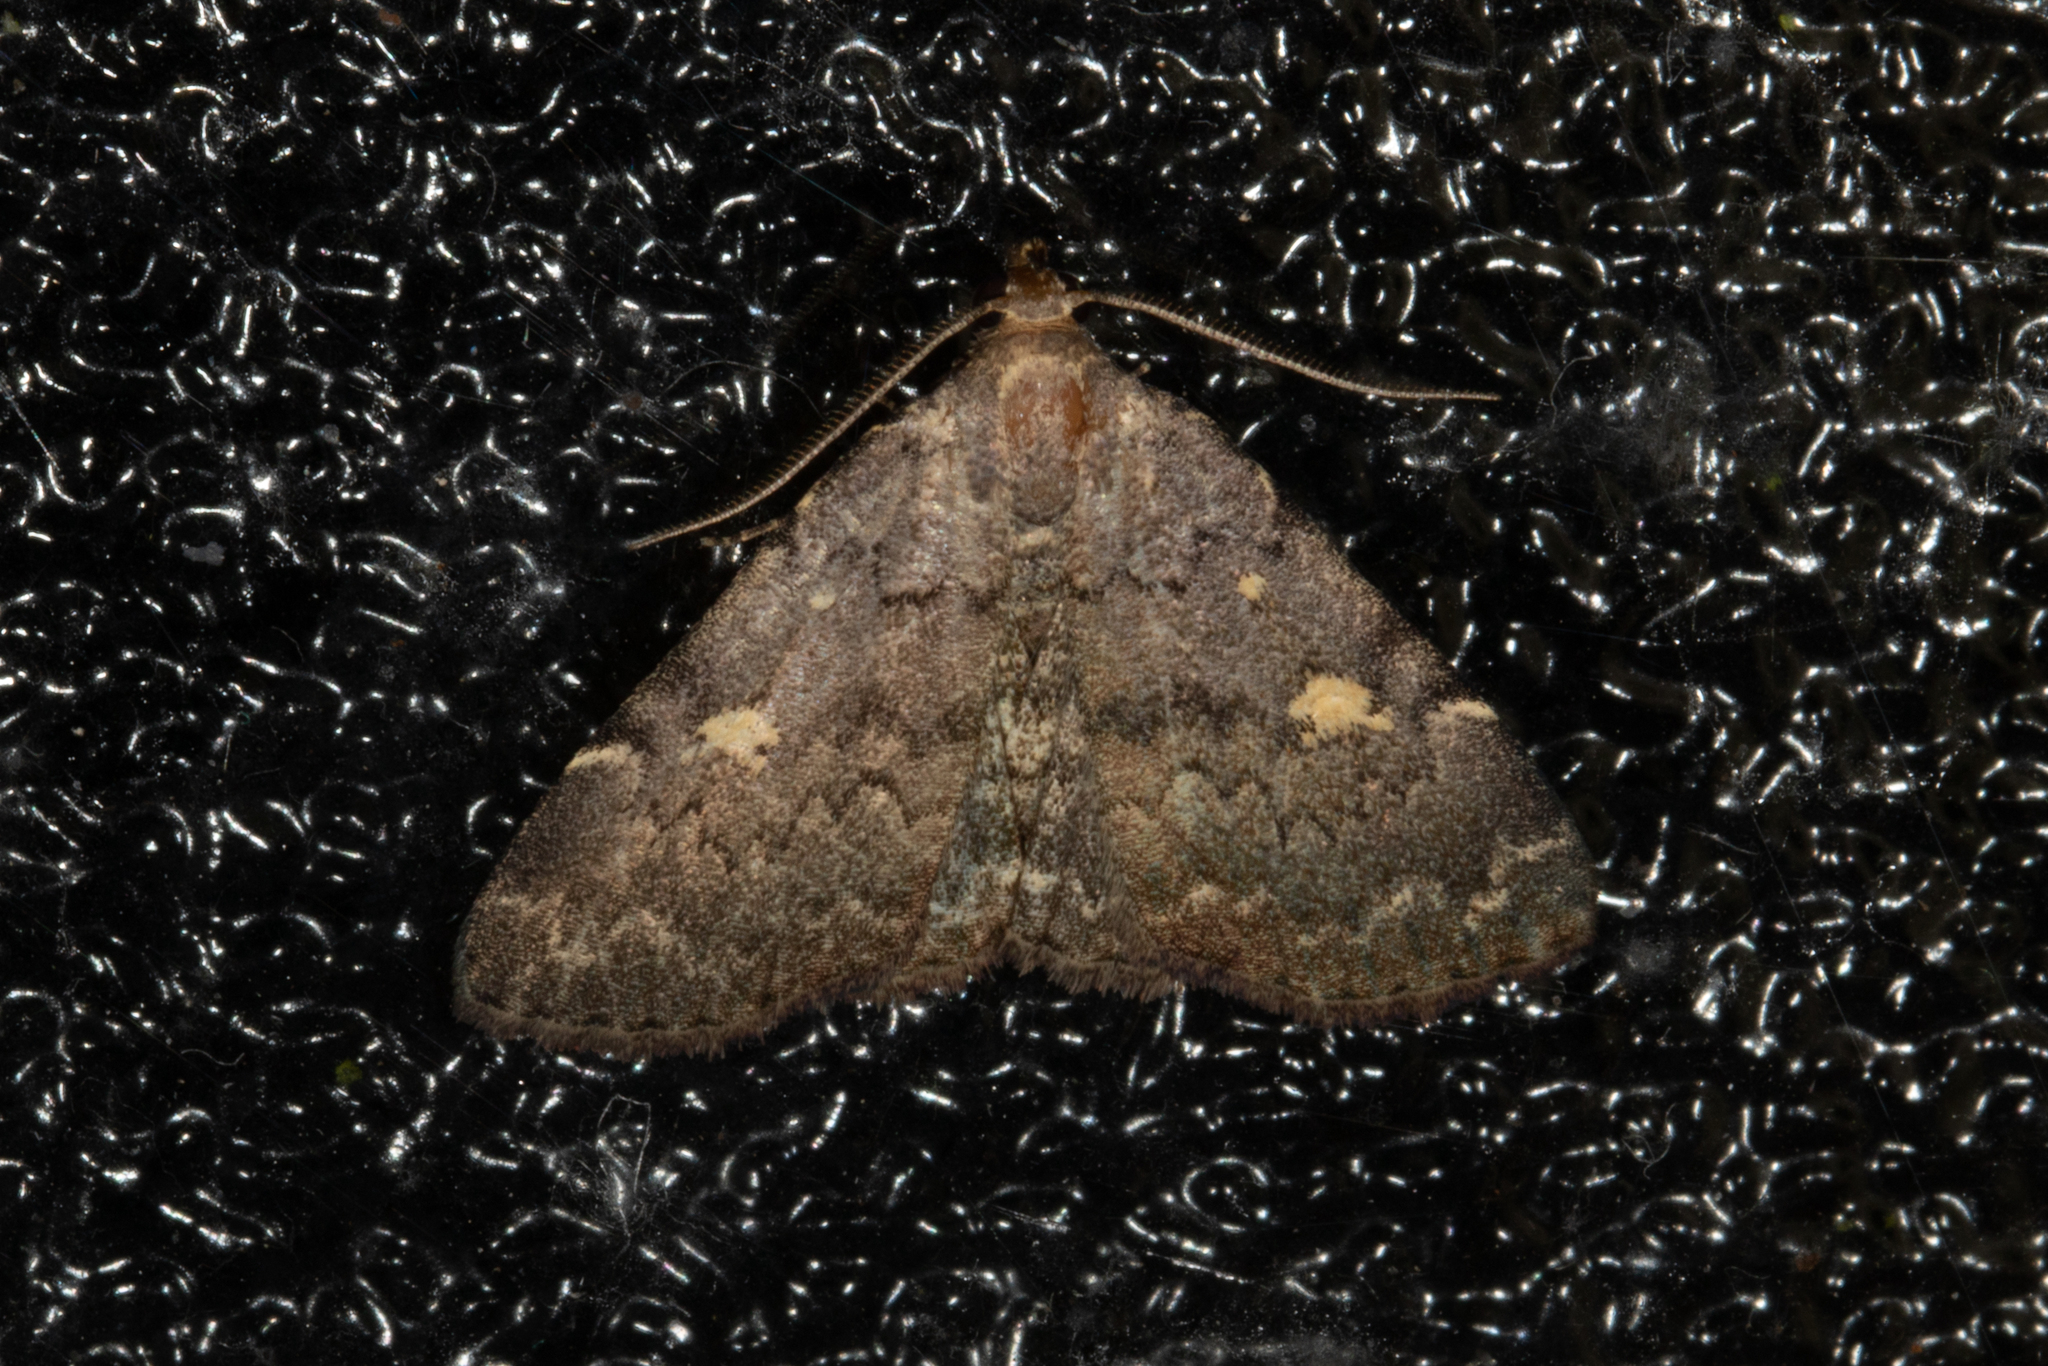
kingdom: Animalia
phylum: Arthropoda
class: Insecta
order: Lepidoptera
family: Erebidae
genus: Idia
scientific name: Idia aemula
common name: Common idia moth
